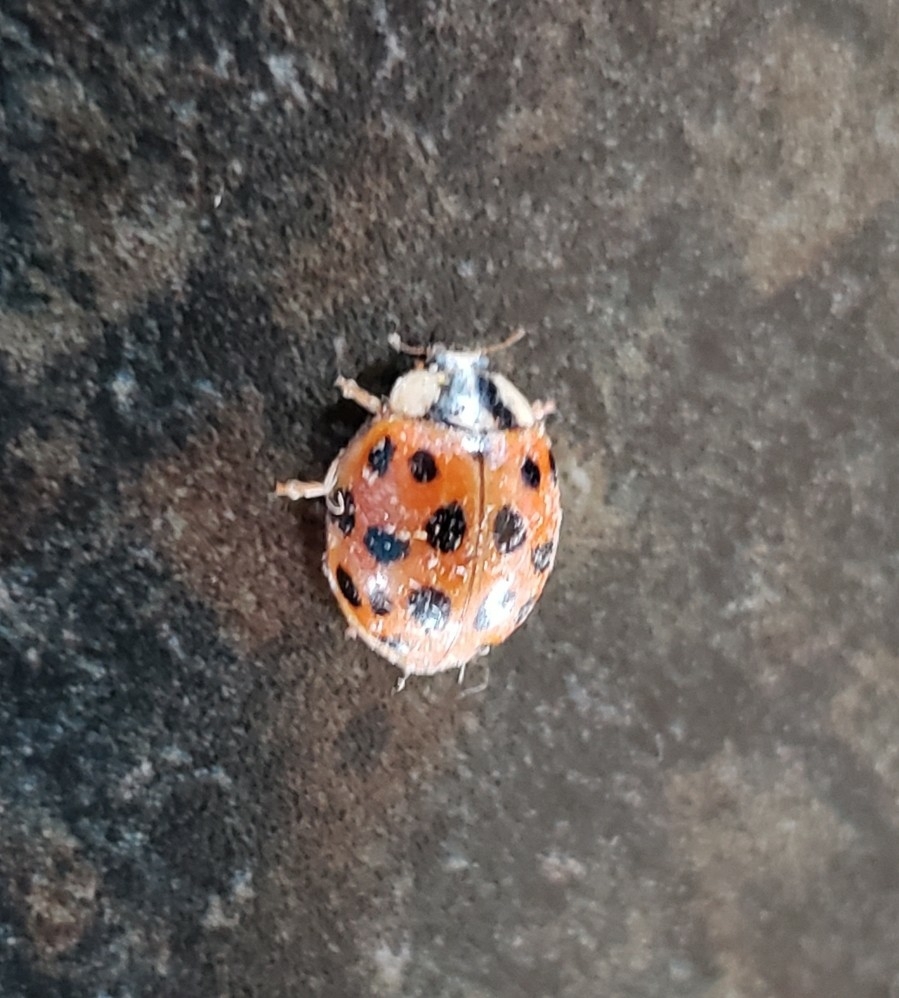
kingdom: Animalia
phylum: Arthropoda
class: Insecta
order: Coleoptera
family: Coccinellidae
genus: Harmonia
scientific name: Harmonia axyridis
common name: Harlequin ladybird
